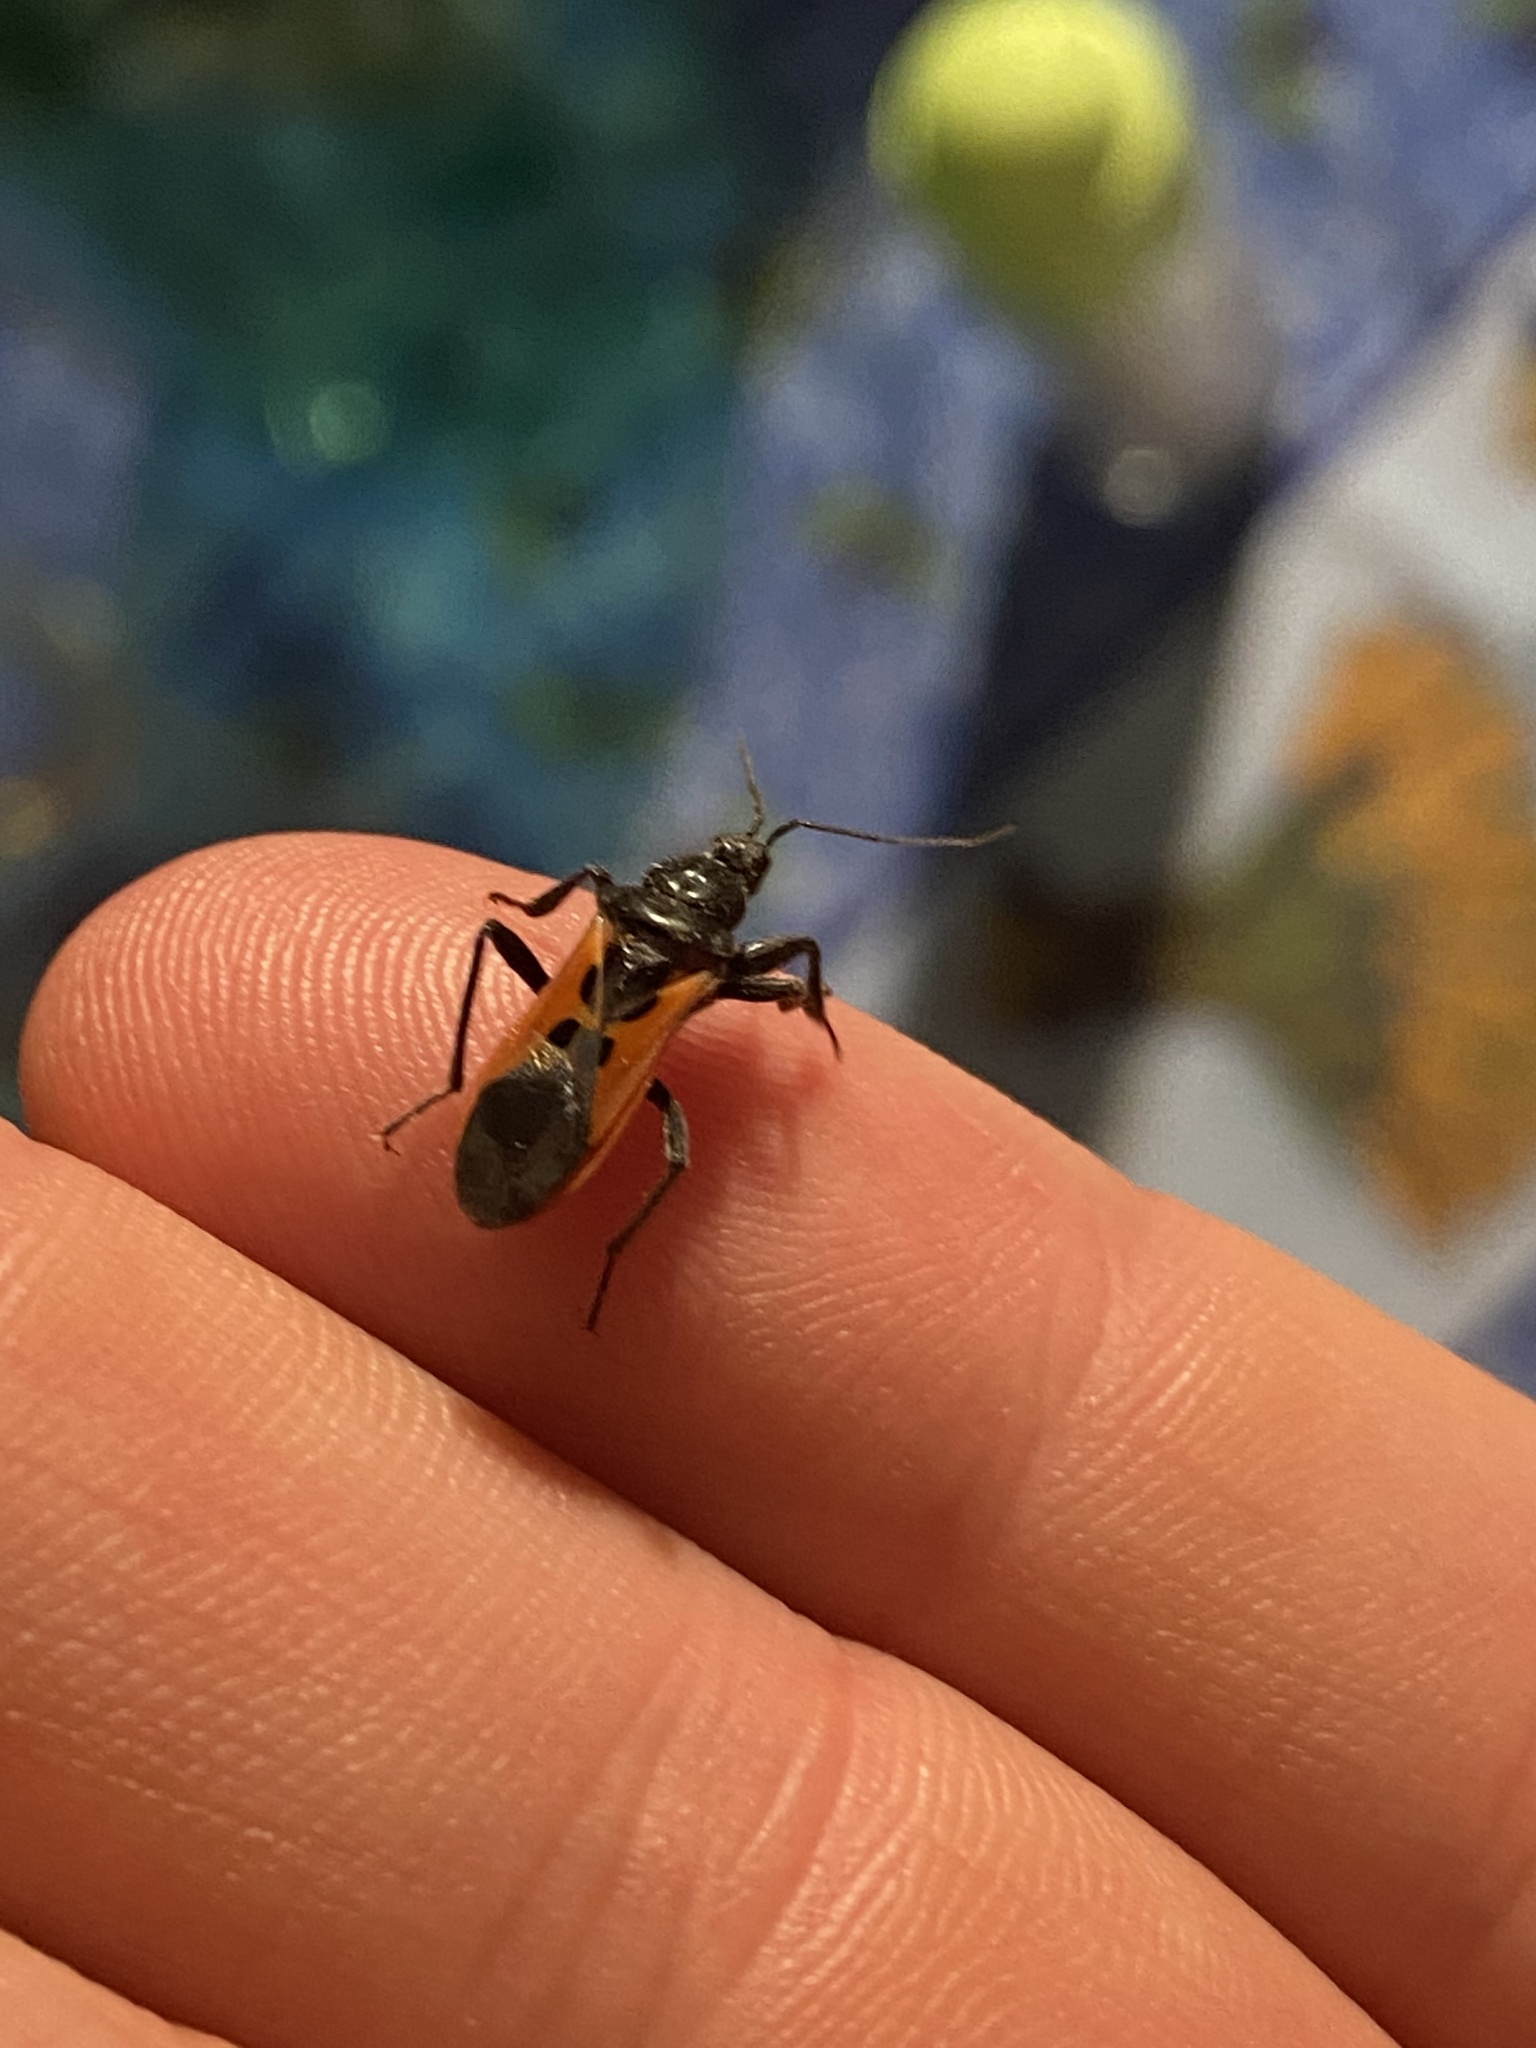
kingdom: Animalia
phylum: Arthropoda
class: Insecta
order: Hemiptera
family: Reduviidae
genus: Peirates
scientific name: Peirates hybridus
